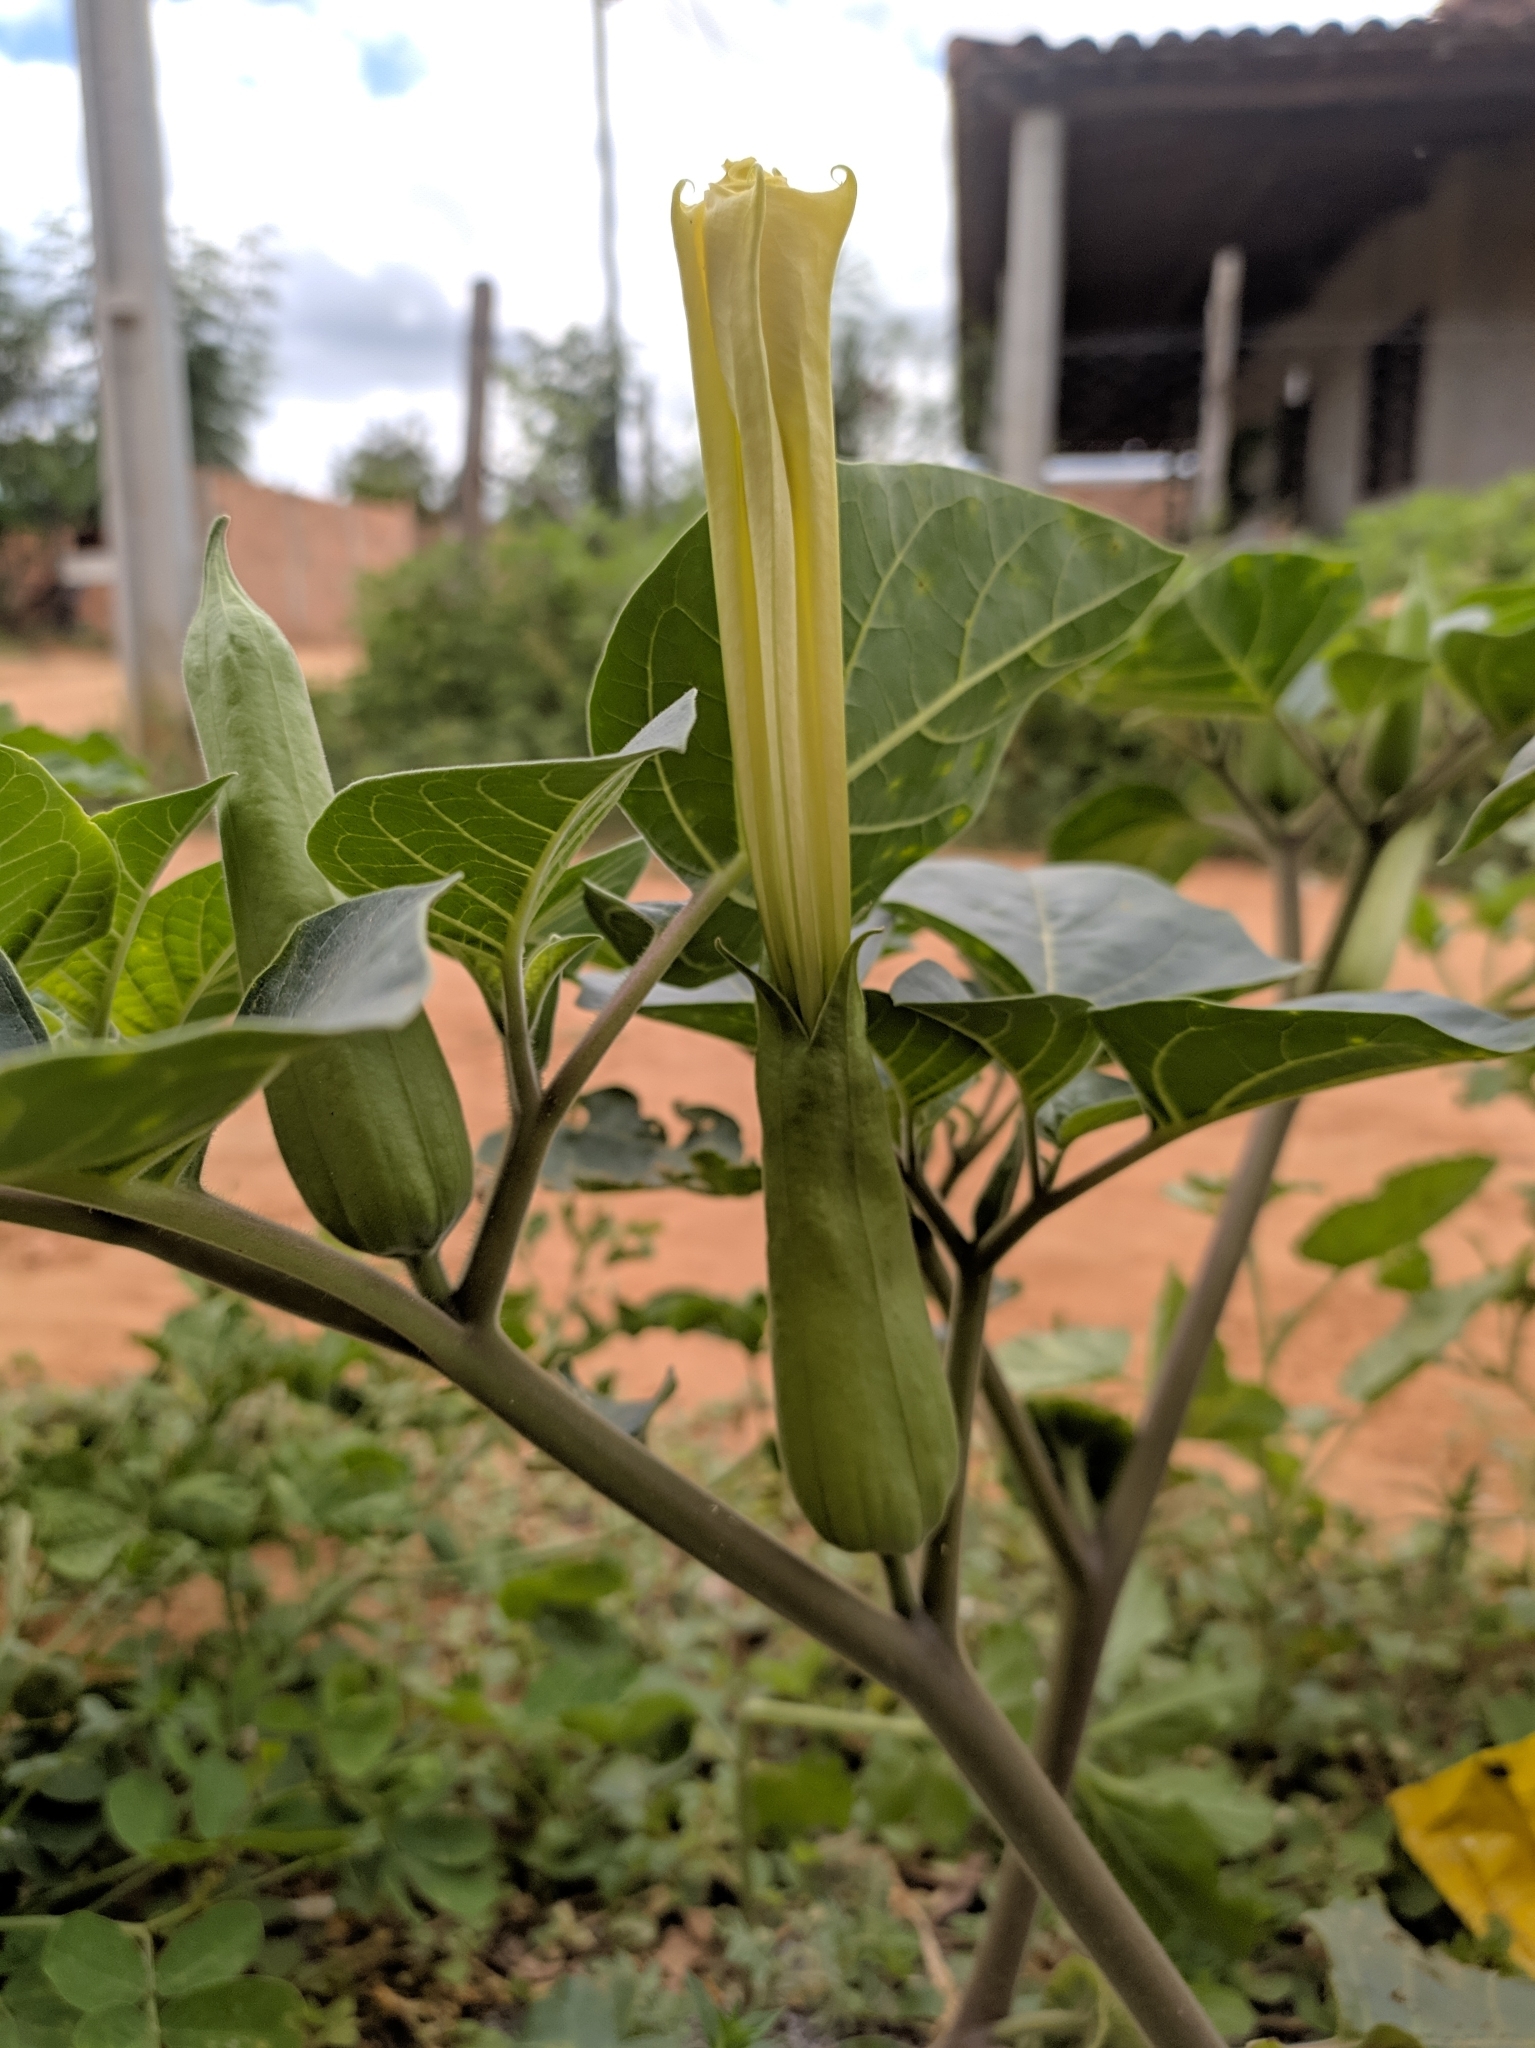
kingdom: Plantae
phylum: Tracheophyta
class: Magnoliopsida
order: Solanales
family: Solanaceae
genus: Datura
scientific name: Datura innoxia
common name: Downy thorn-apple
